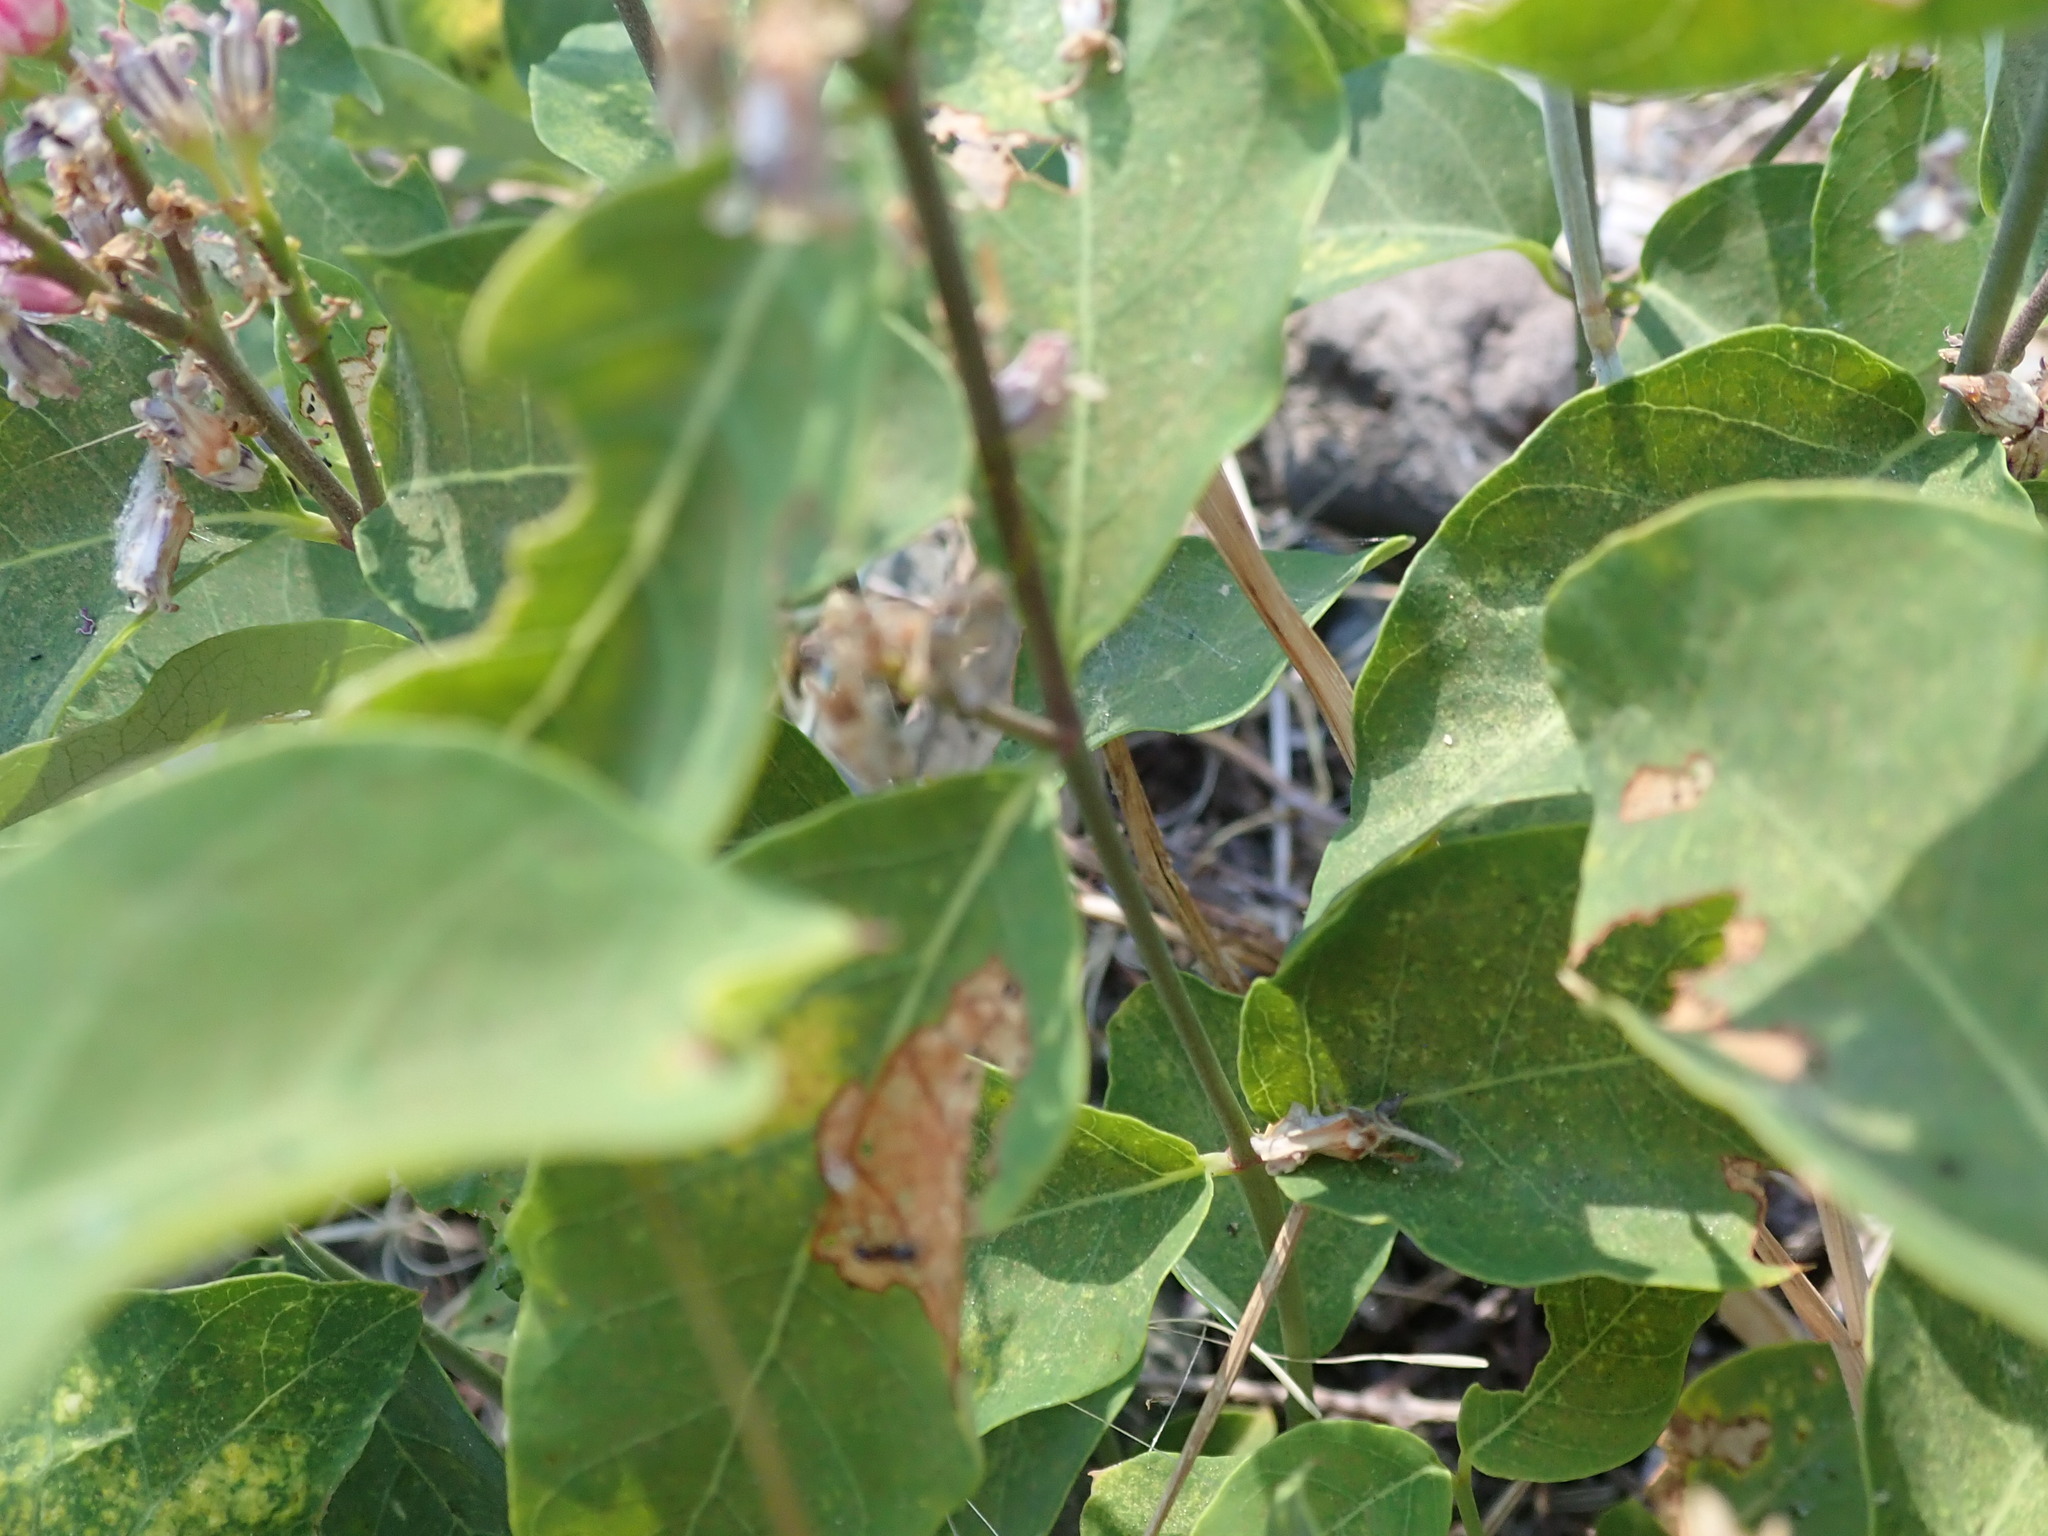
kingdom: Plantae
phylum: Tracheophyta
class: Magnoliopsida
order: Gentianales
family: Apocynaceae
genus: Apocynum
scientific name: Apocynum androsaemifolium
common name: Spreading dogbane
